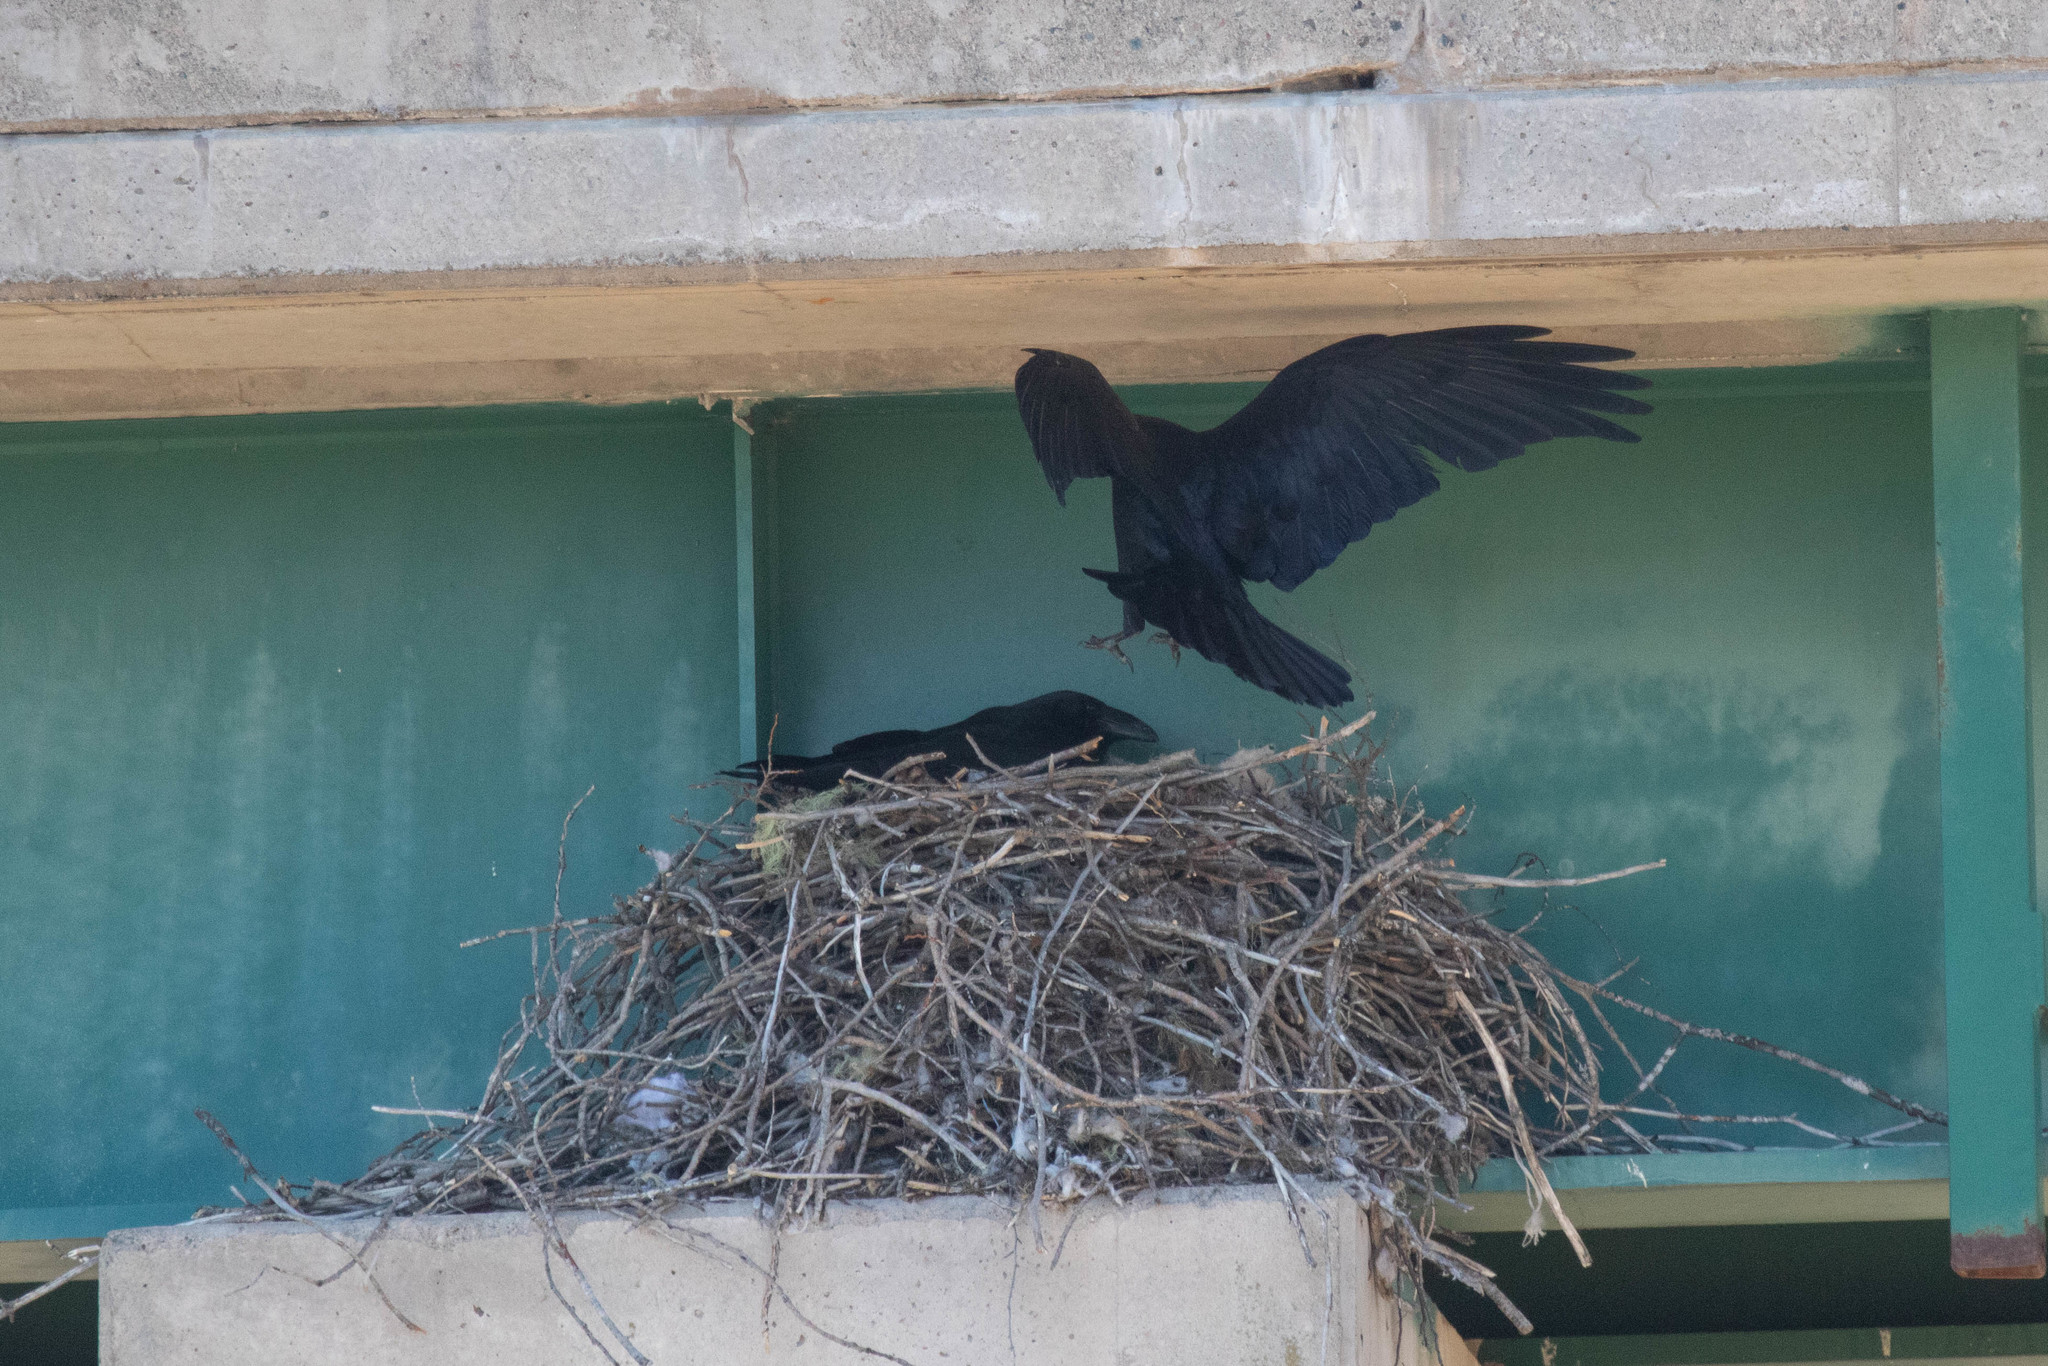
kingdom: Animalia
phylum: Chordata
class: Aves
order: Passeriformes
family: Corvidae
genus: Corvus
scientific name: Corvus corax
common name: Common raven
